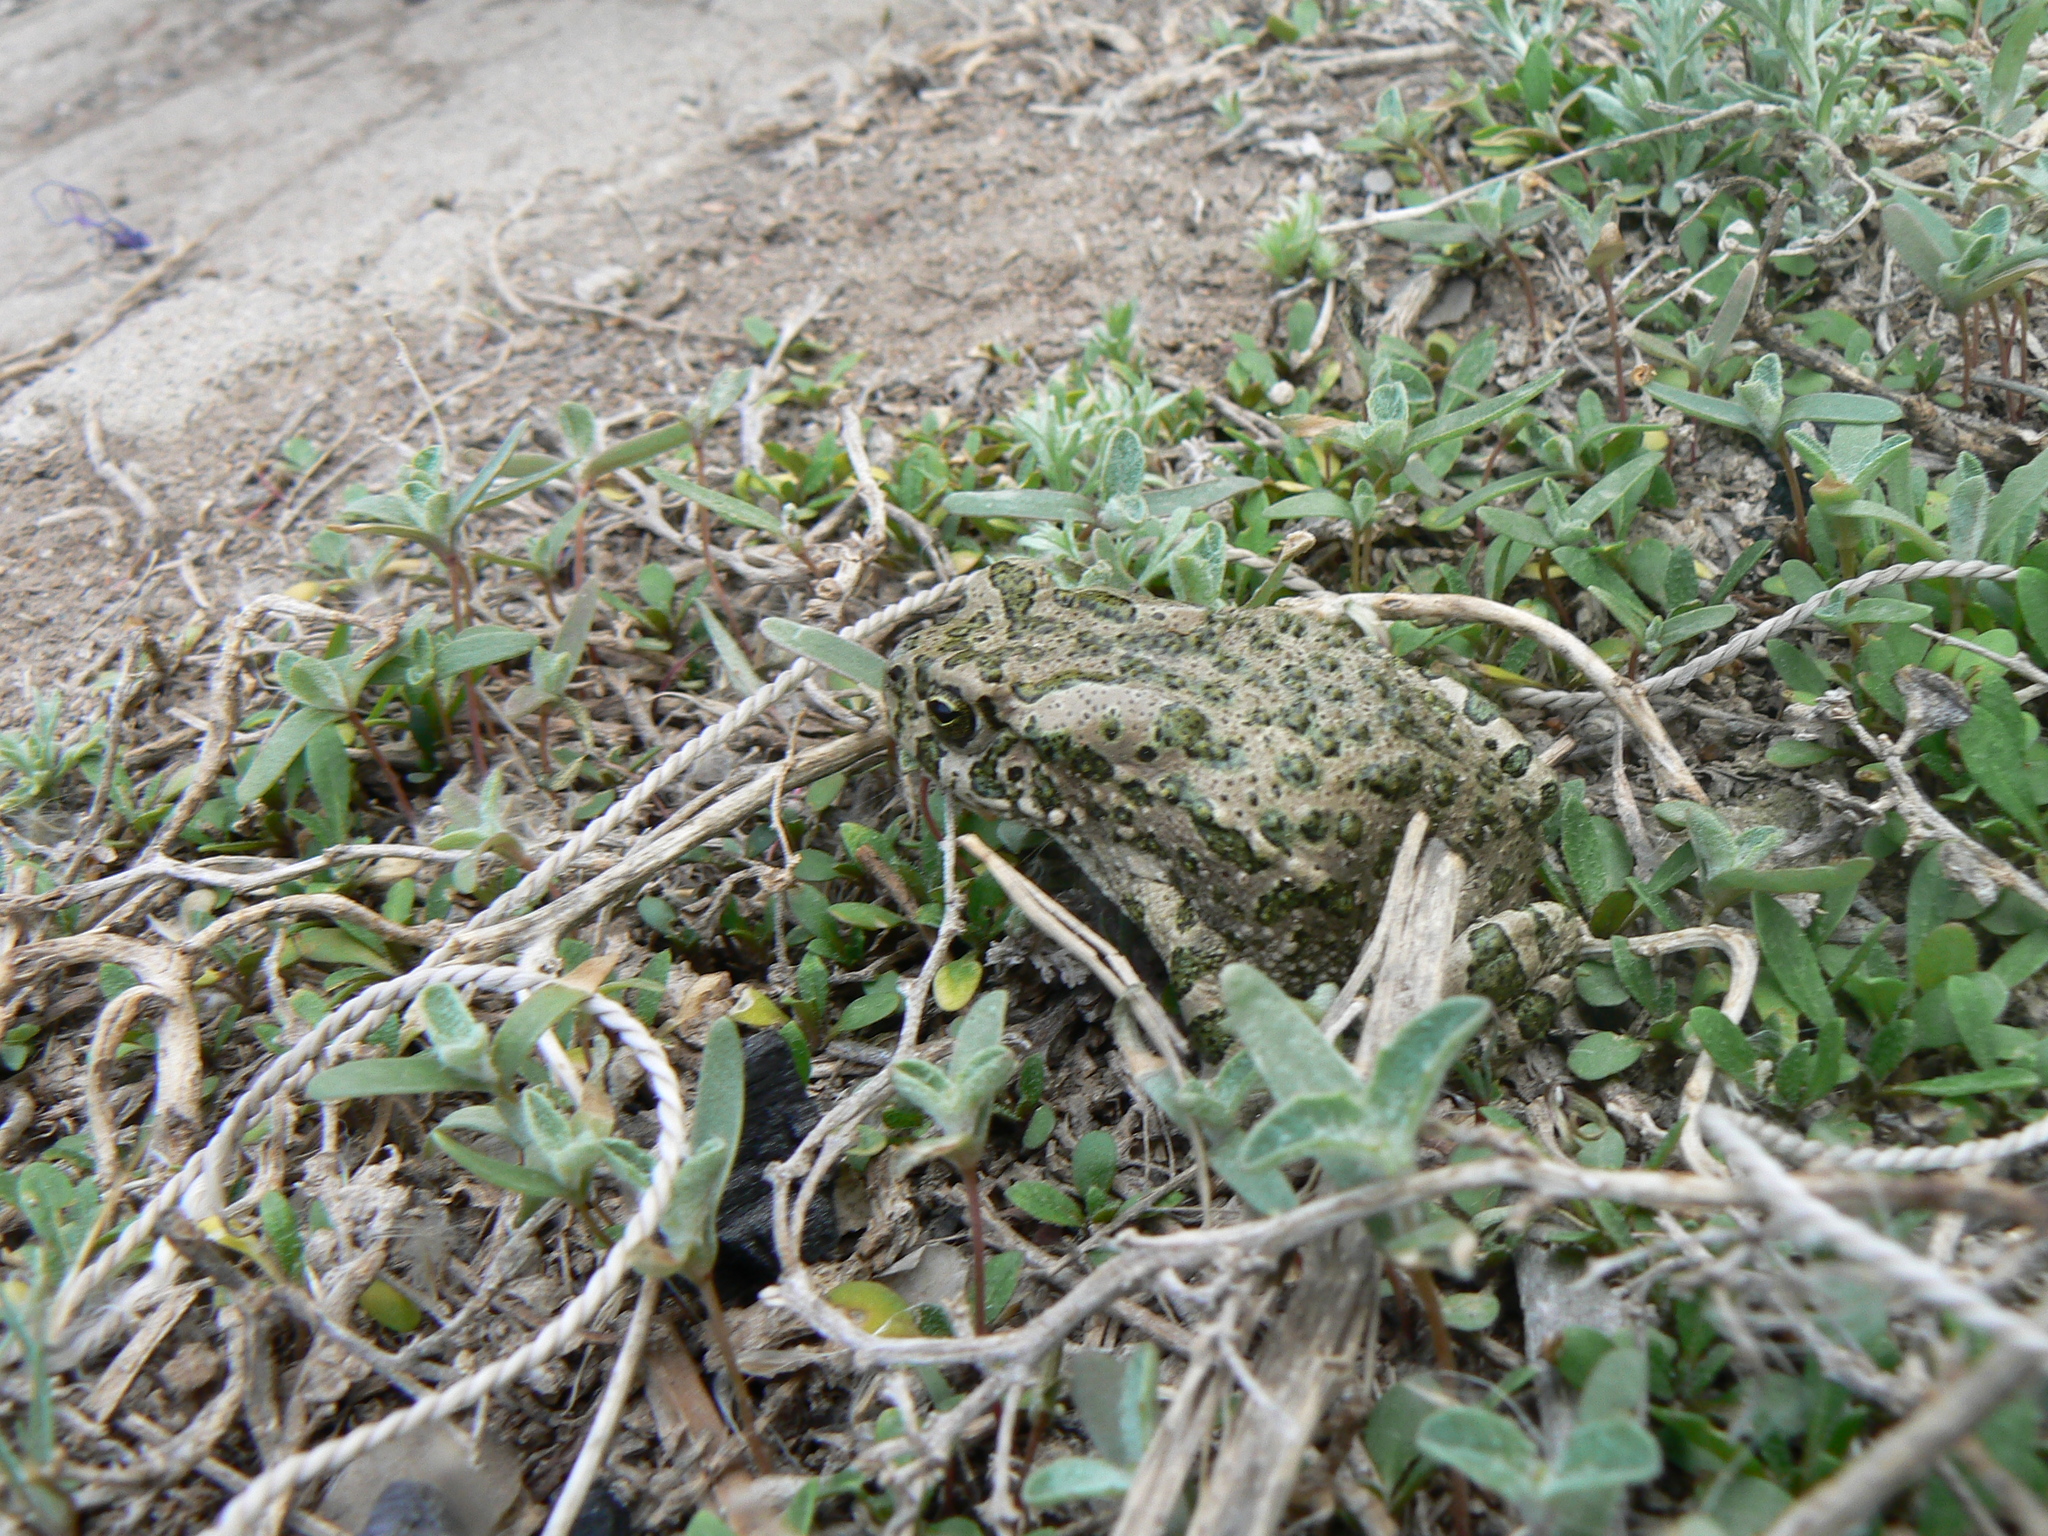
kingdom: Animalia
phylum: Chordata
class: Amphibia
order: Anura
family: Bufonidae
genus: Bufotes
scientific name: Bufotes viridis
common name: European green toad
